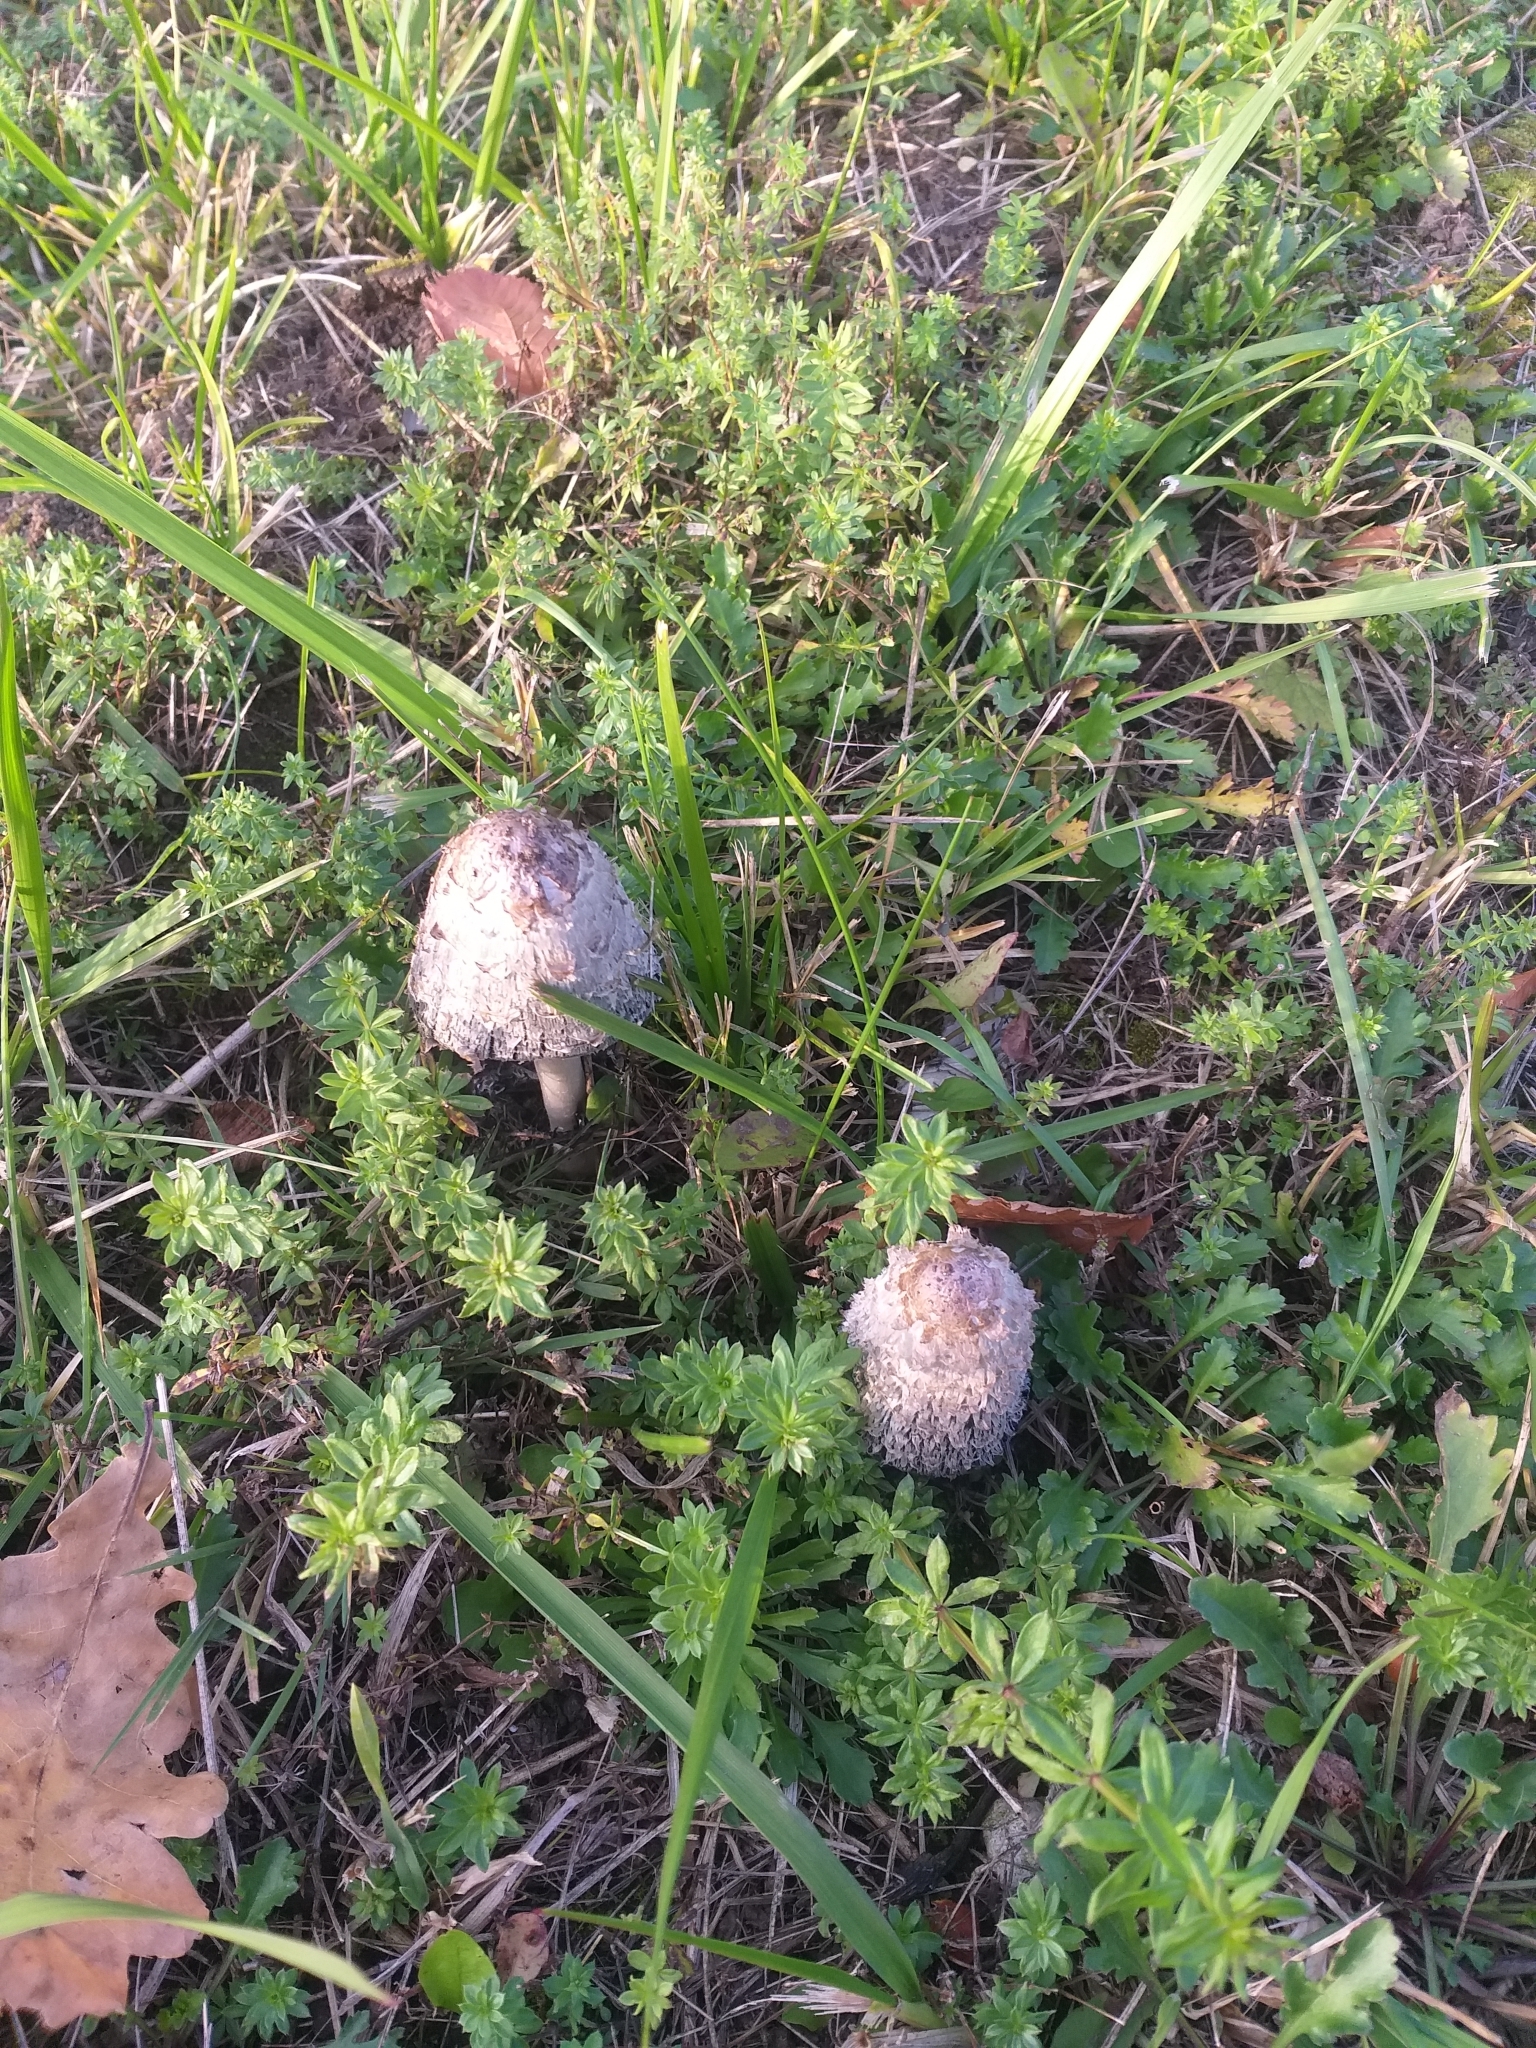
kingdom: Fungi
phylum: Basidiomycota
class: Agaricomycetes
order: Agaricales
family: Agaricaceae
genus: Coprinus
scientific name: Coprinus comatus
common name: Lawyer's wig
